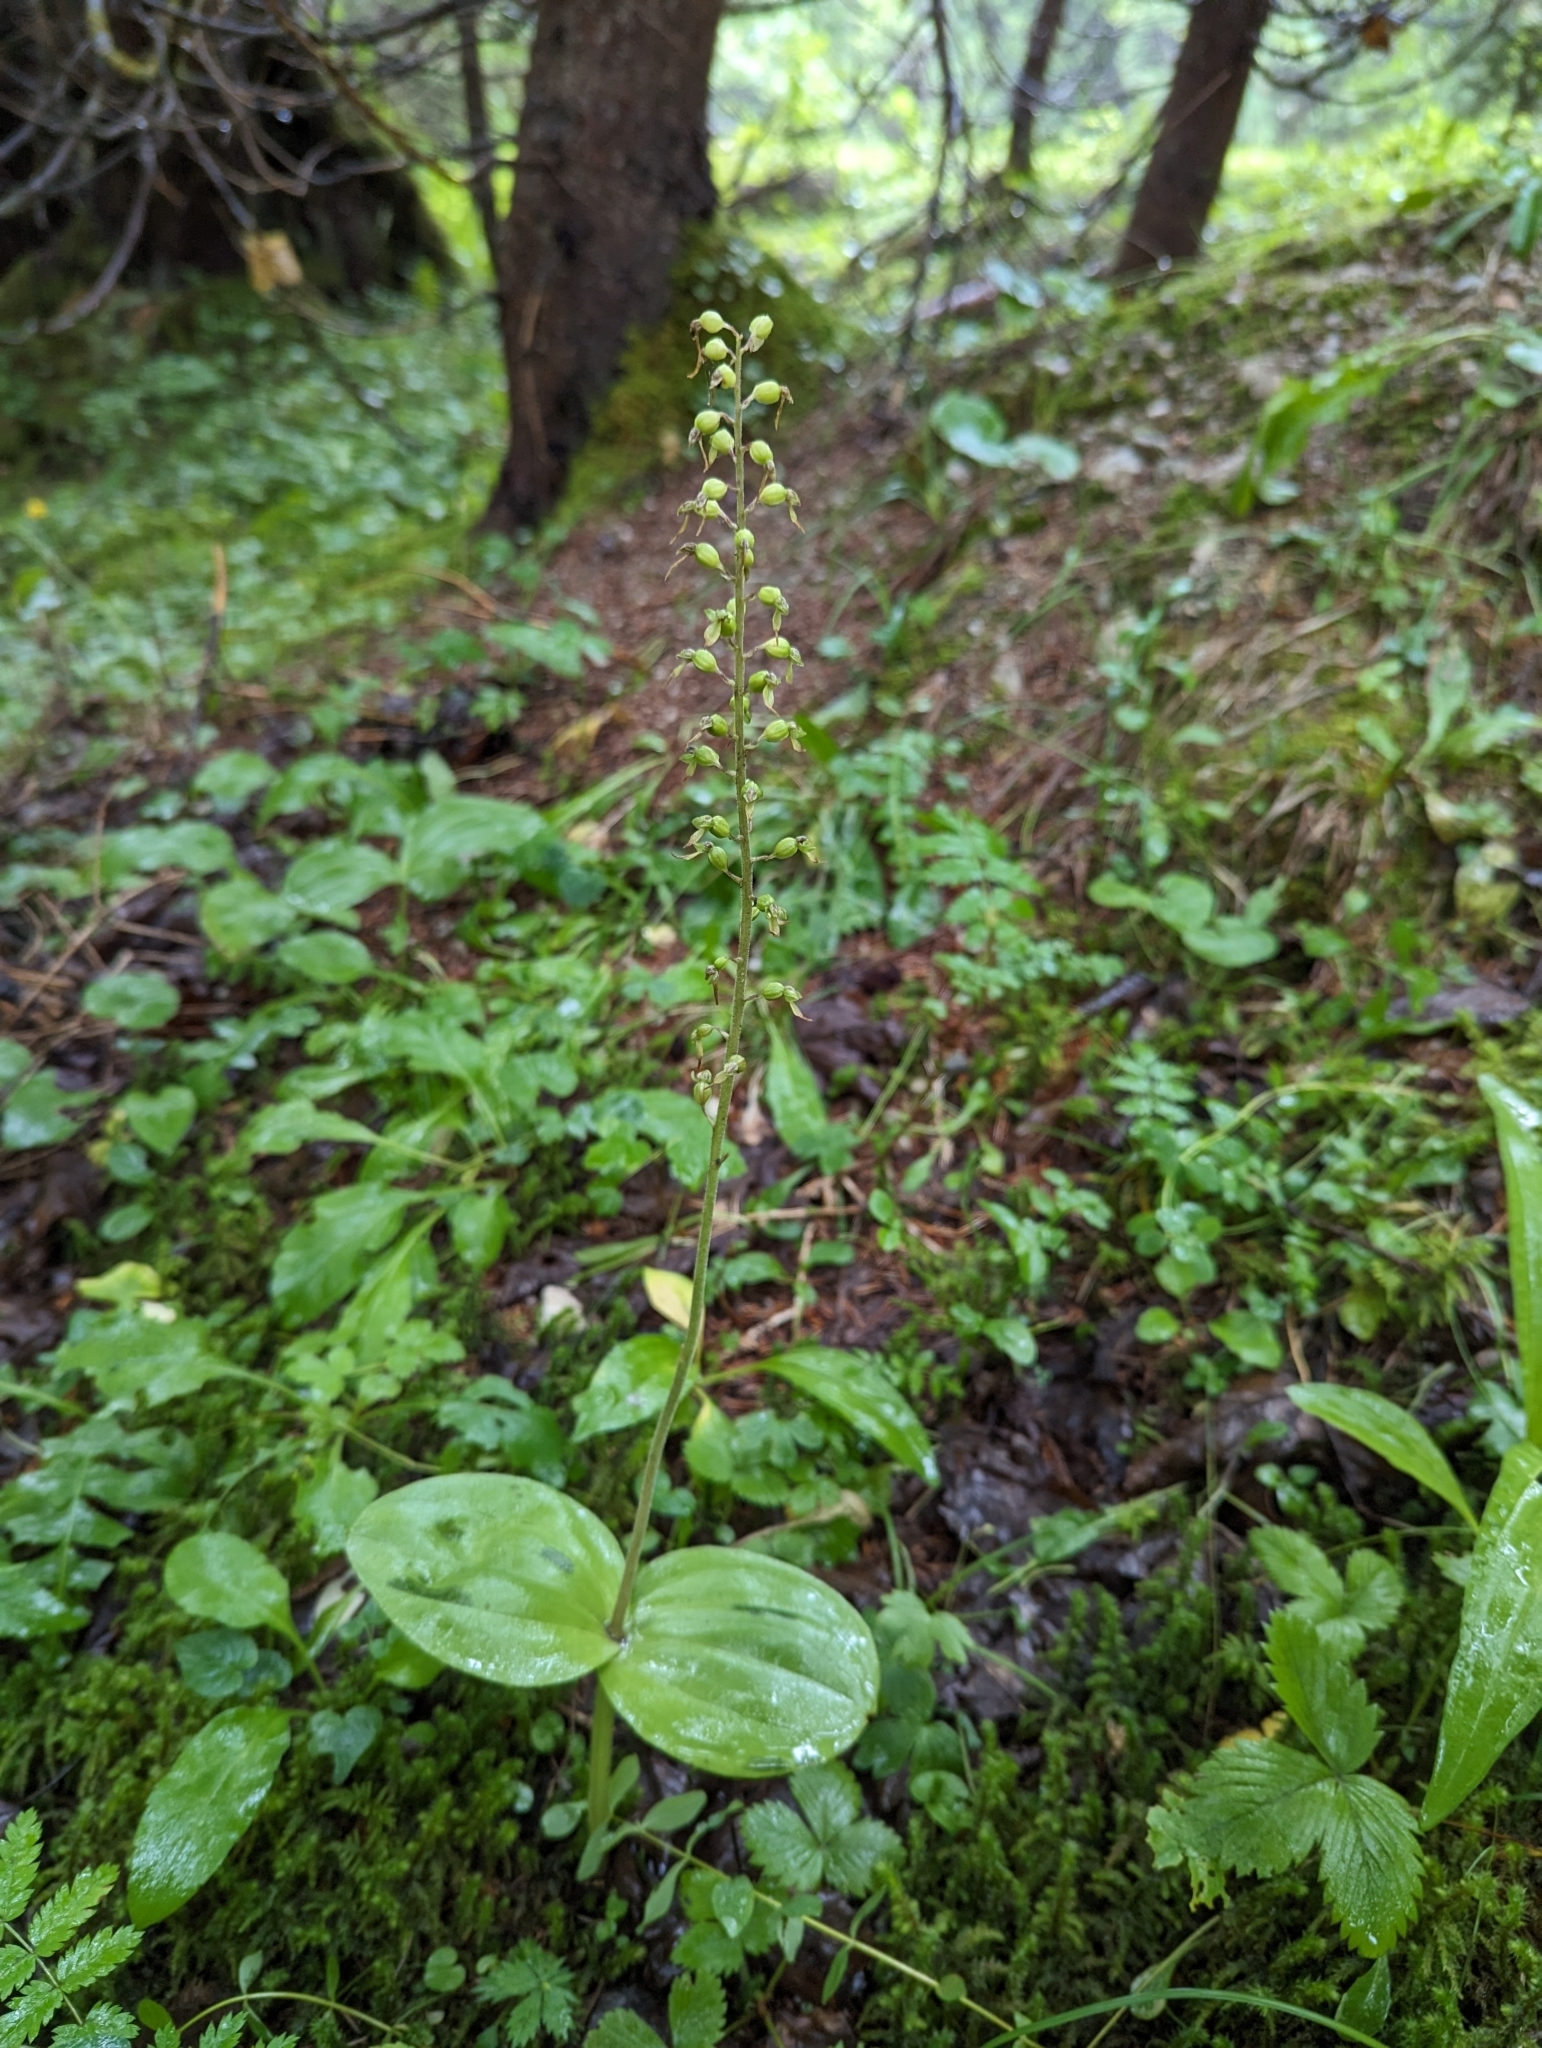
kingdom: Plantae
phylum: Tracheophyta
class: Liliopsida
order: Asparagales
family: Orchidaceae
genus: Neottia
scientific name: Neottia ovata
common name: Common twayblade
